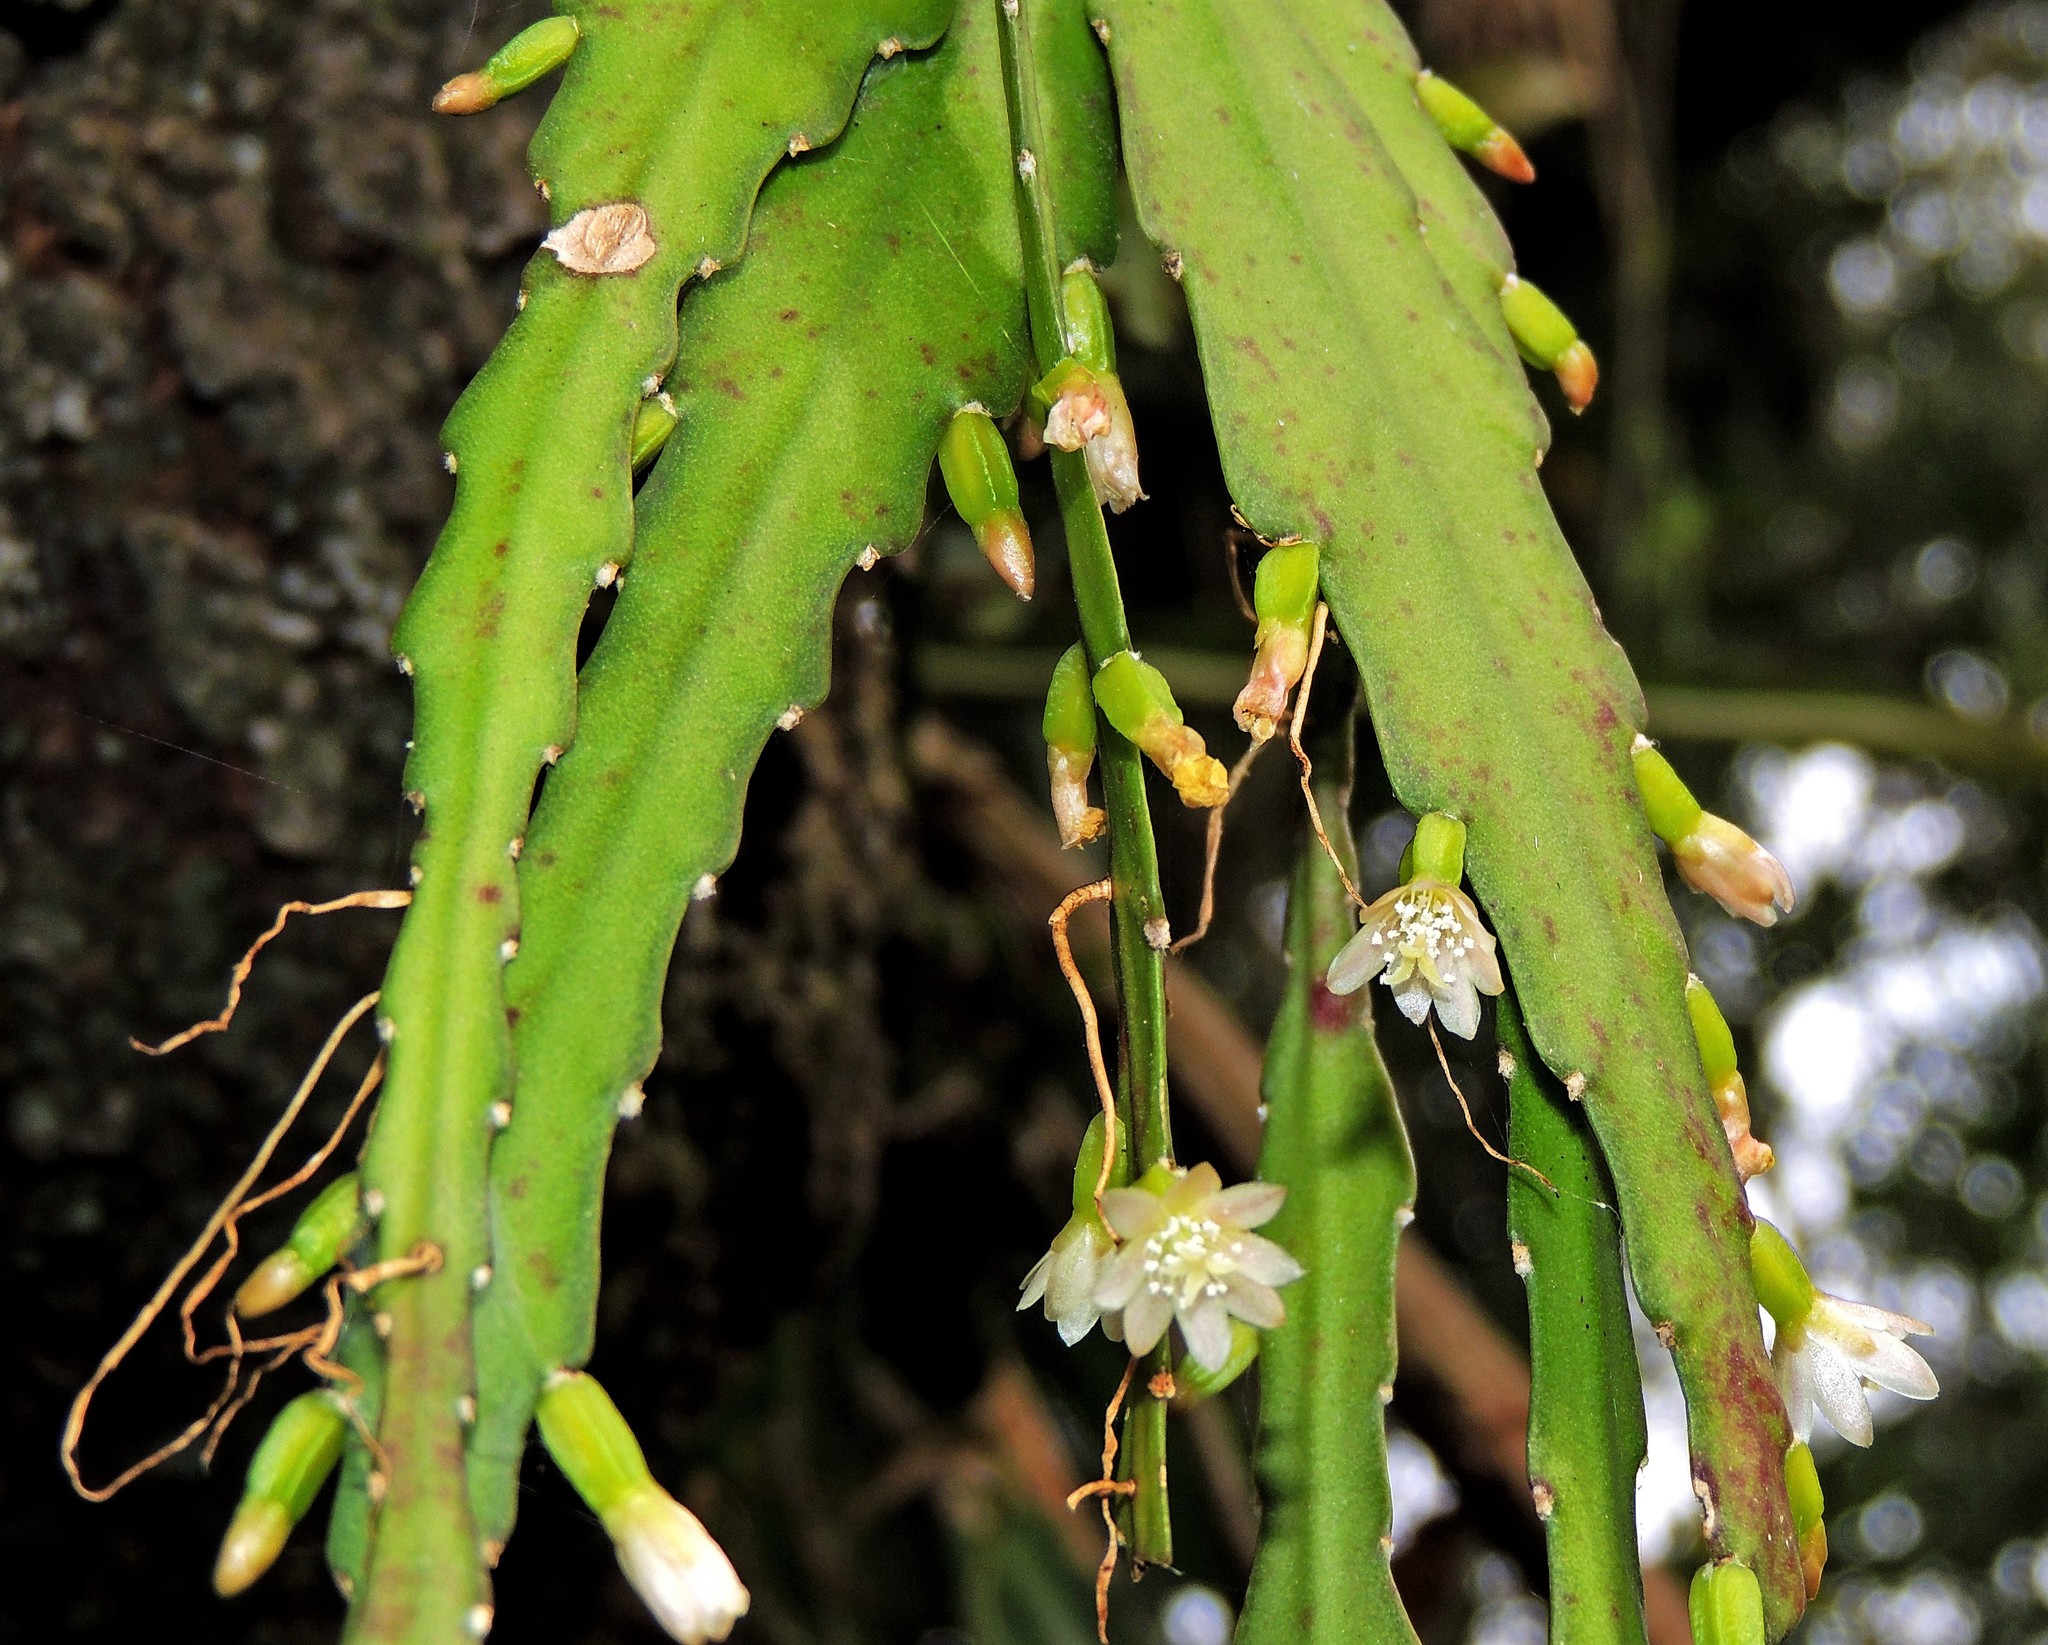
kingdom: Plantae
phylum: Tracheophyta
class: Magnoliopsida
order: Caryophyllales
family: Cactaceae
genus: Lepismium
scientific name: Lepismium lorentzianum
